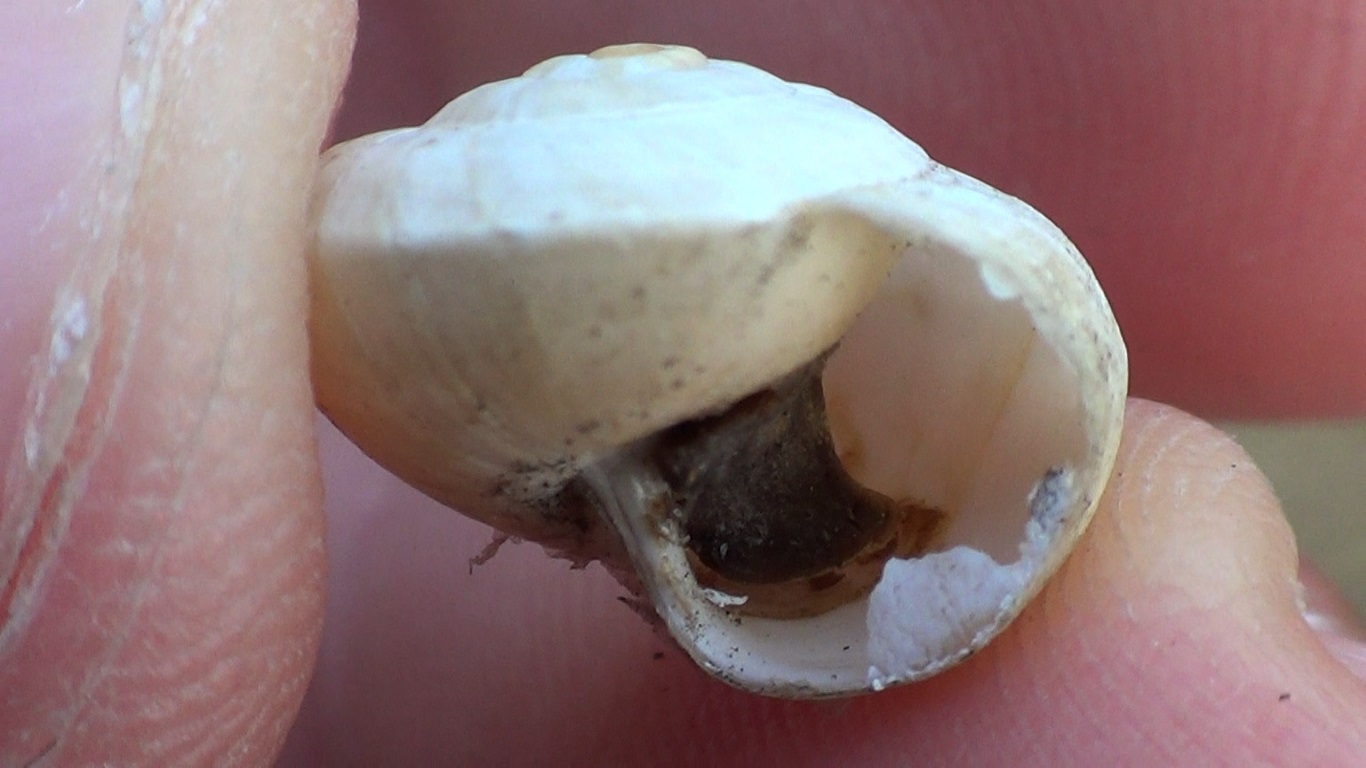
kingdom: Animalia
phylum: Mollusca
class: Gastropoda
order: Stylommatophora
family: Helicidae
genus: Theba
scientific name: Theba pisana
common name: White snail
